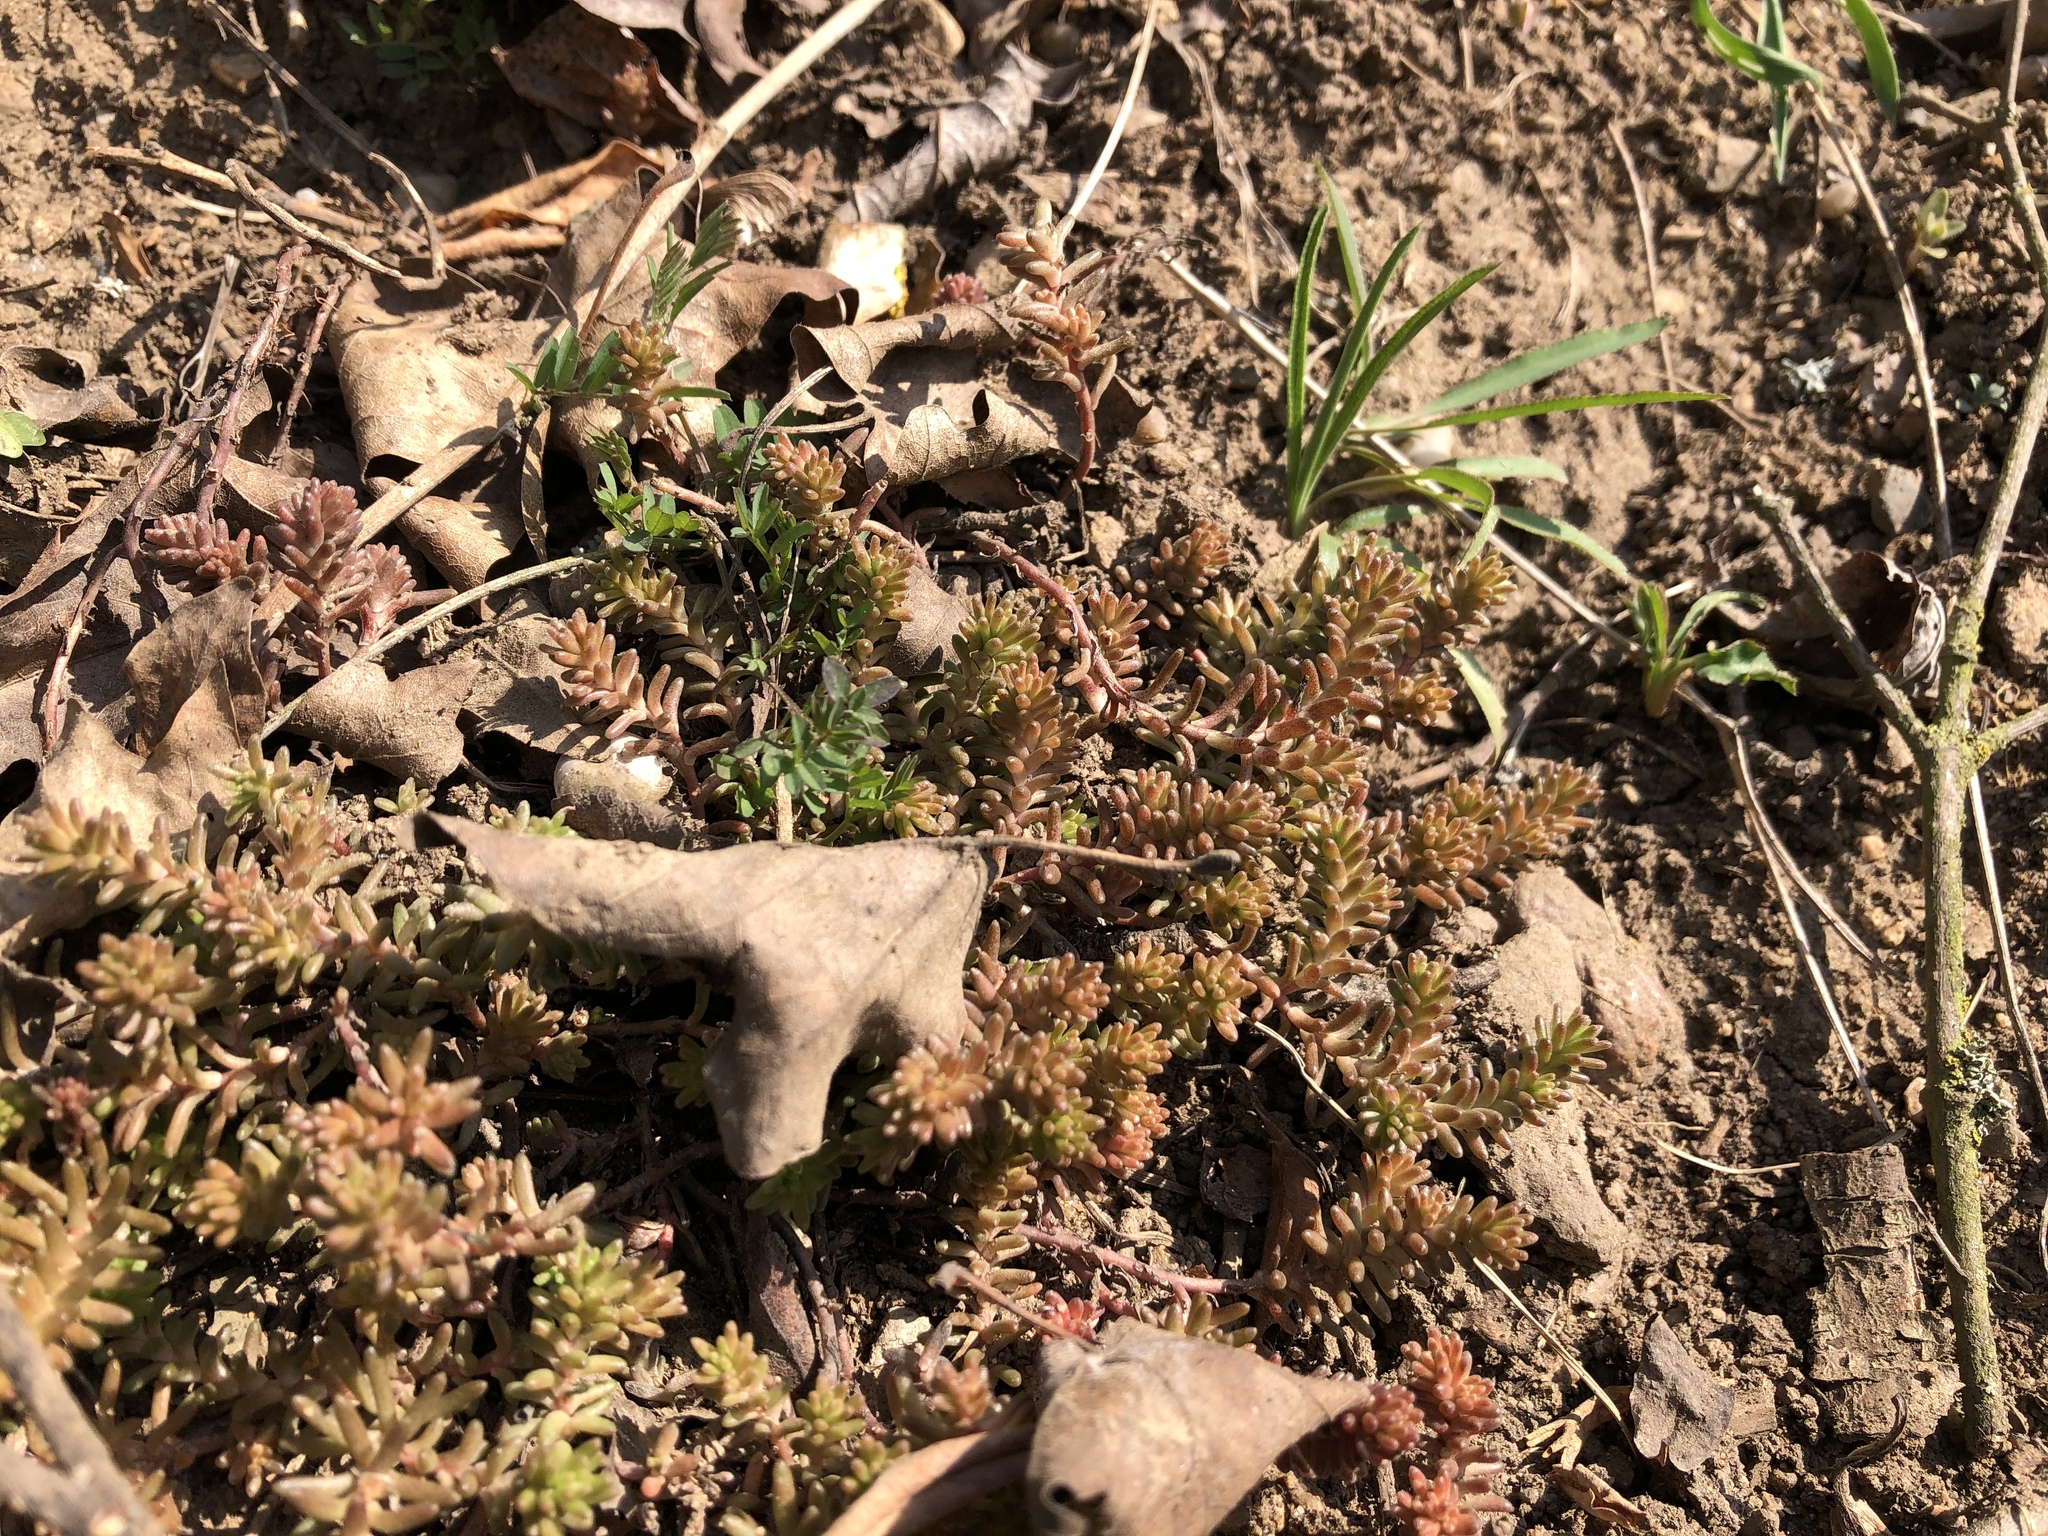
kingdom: Plantae
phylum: Tracheophyta
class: Magnoliopsida
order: Saxifragales
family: Crassulaceae
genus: Sedum
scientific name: Sedum sexangulare
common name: Tasteless stonecrop
